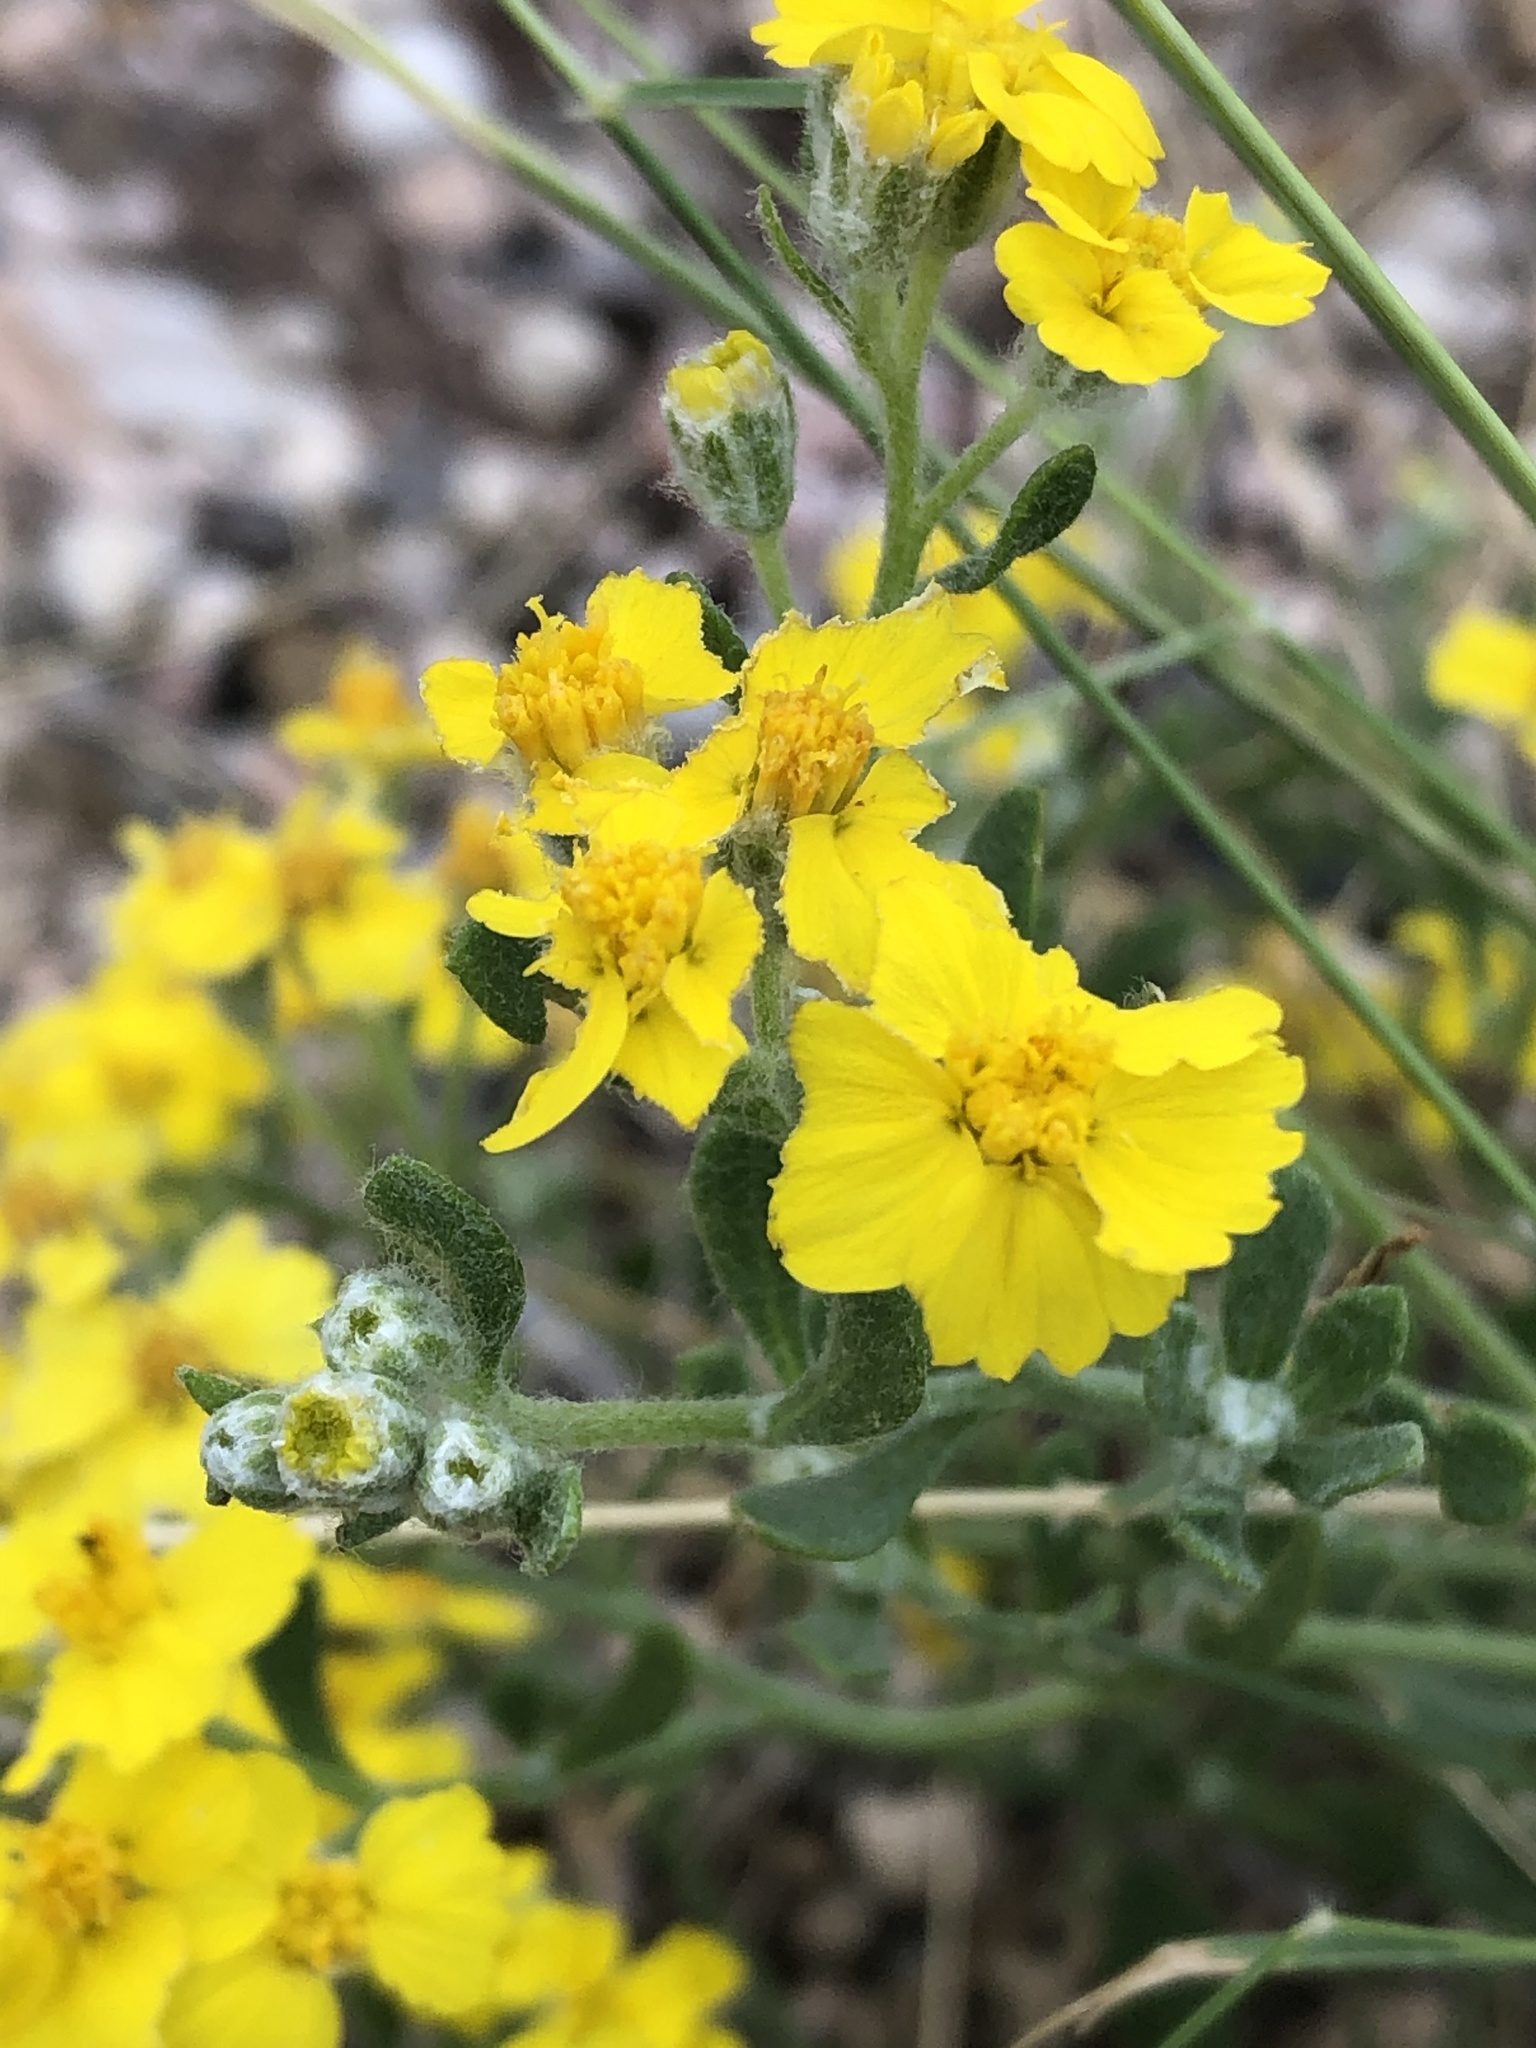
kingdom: Plantae
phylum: Tracheophyta
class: Magnoliopsida
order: Asterales
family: Asteraceae
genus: Psilostrophe
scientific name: Psilostrophe tagetina
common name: Marigold paper-flower
